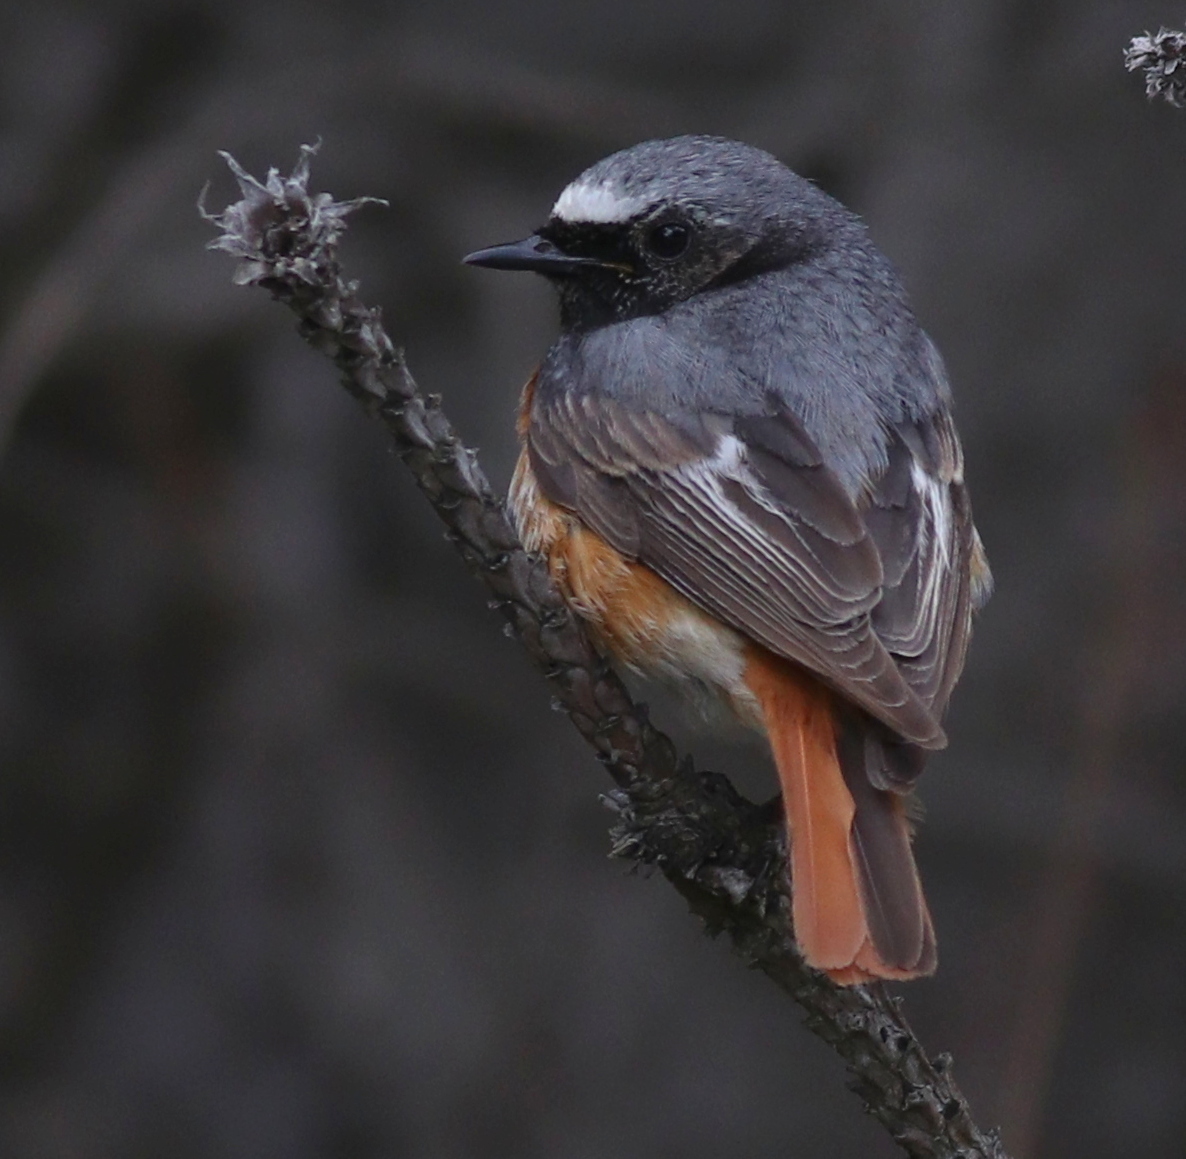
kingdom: Animalia
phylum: Chordata
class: Aves
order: Passeriformes
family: Muscicapidae
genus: Phoenicurus
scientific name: Phoenicurus phoenicurus
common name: Common redstart
